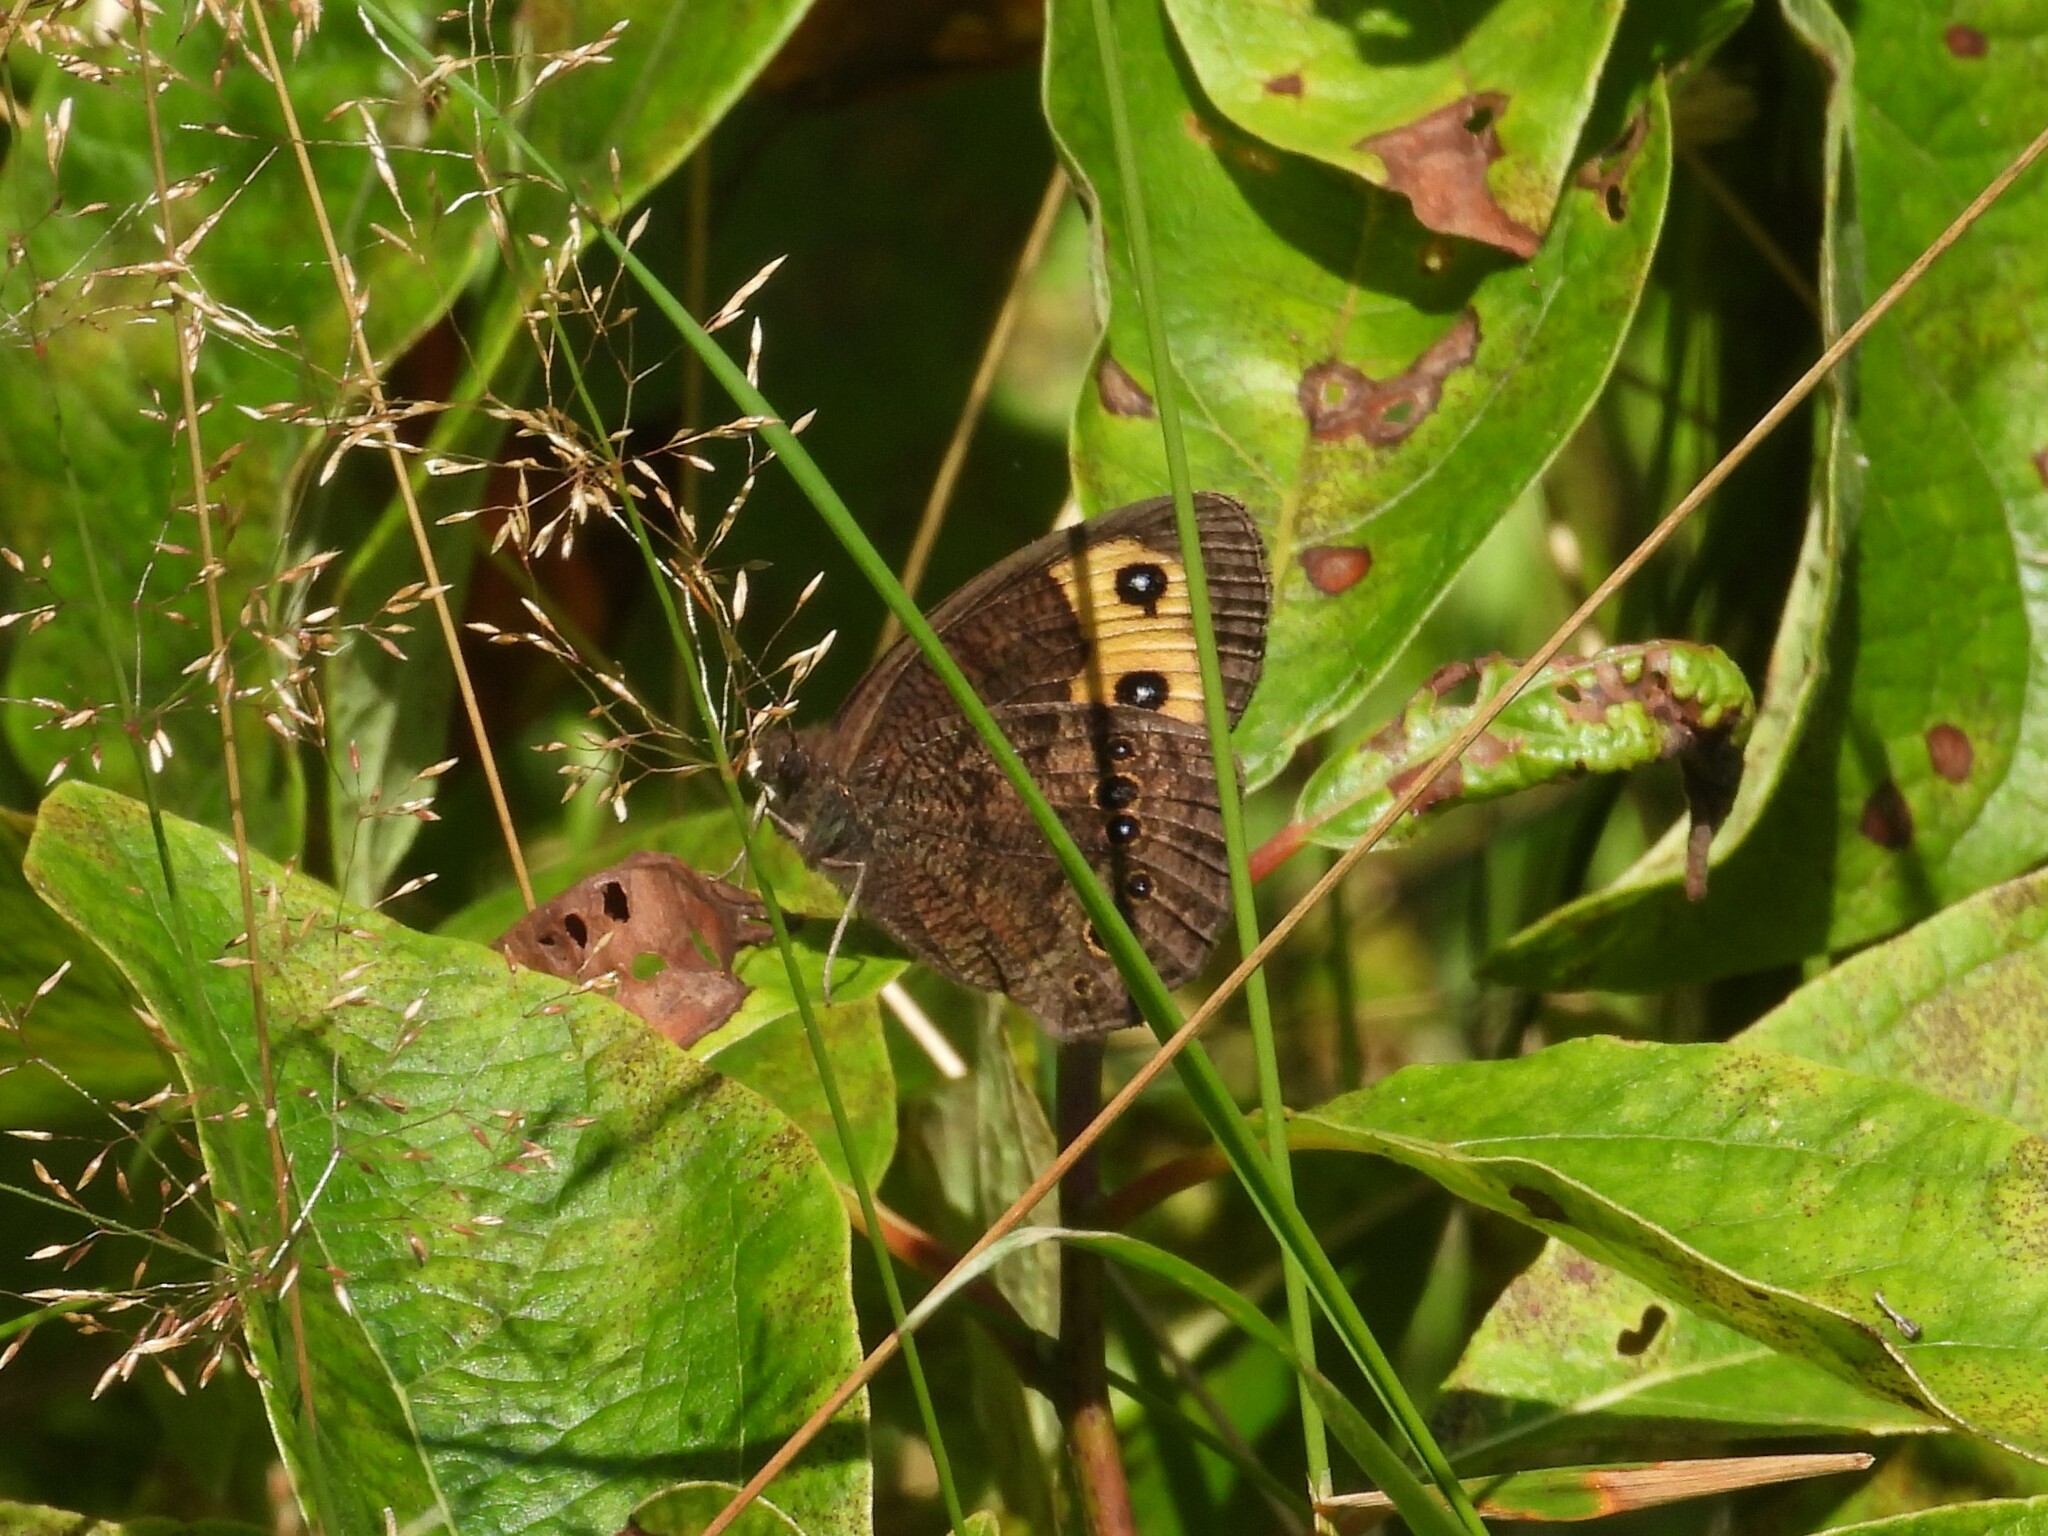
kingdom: Animalia
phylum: Arthropoda
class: Insecta
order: Lepidoptera
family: Nymphalidae
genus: Cercyonis
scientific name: Cercyonis pegala
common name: Common wood-nymph
